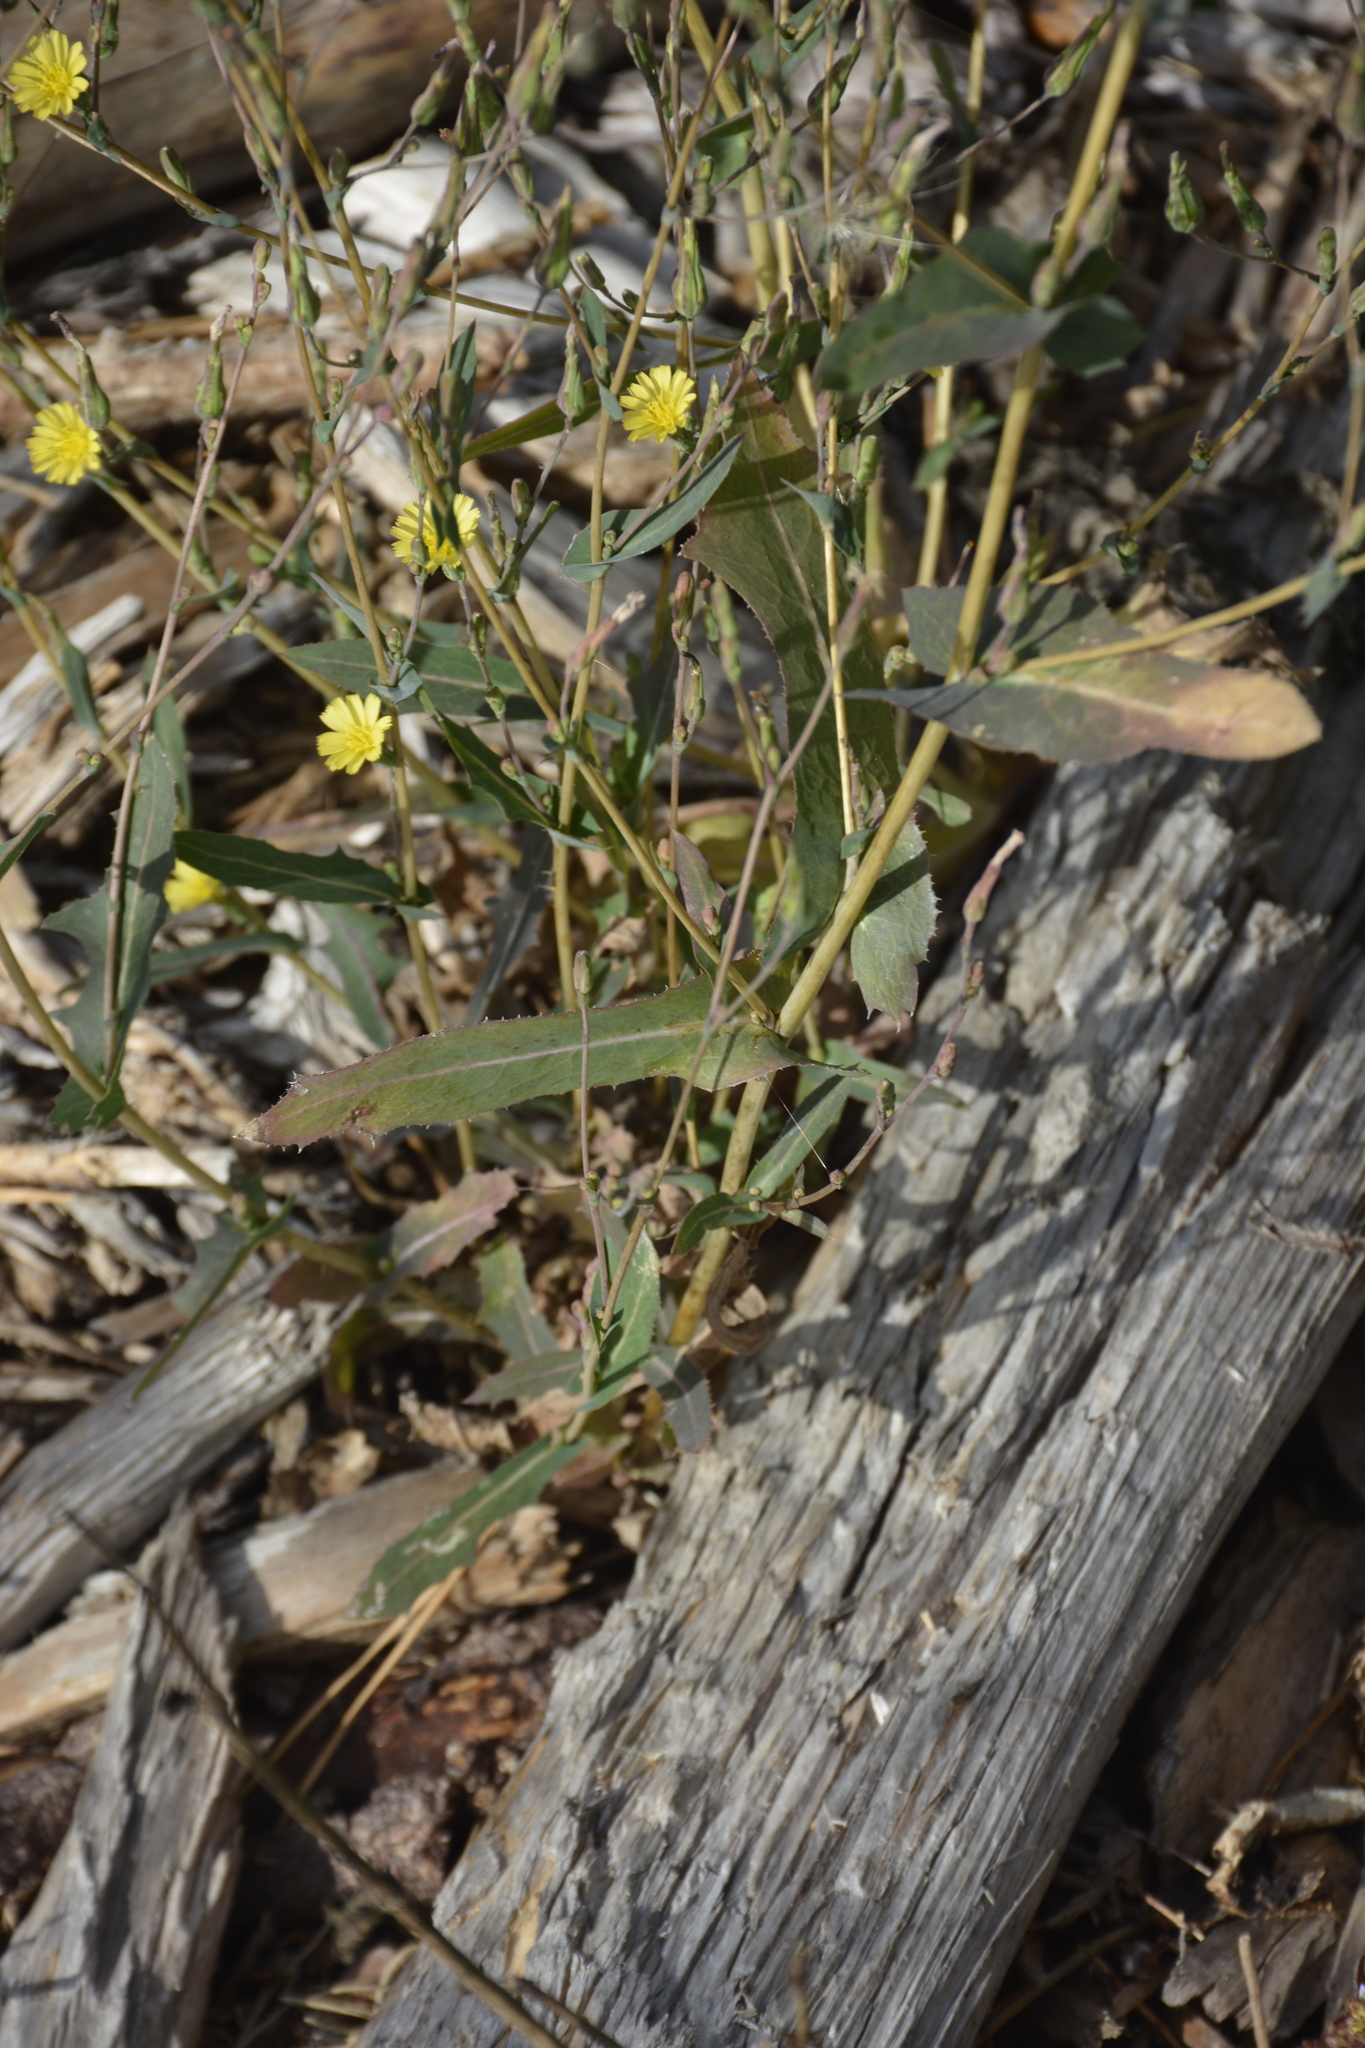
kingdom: Plantae
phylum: Tracheophyta
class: Magnoliopsida
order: Asterales
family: Asteraceae
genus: Lactuca
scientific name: Lactuca serriola
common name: Prickly lettuce
